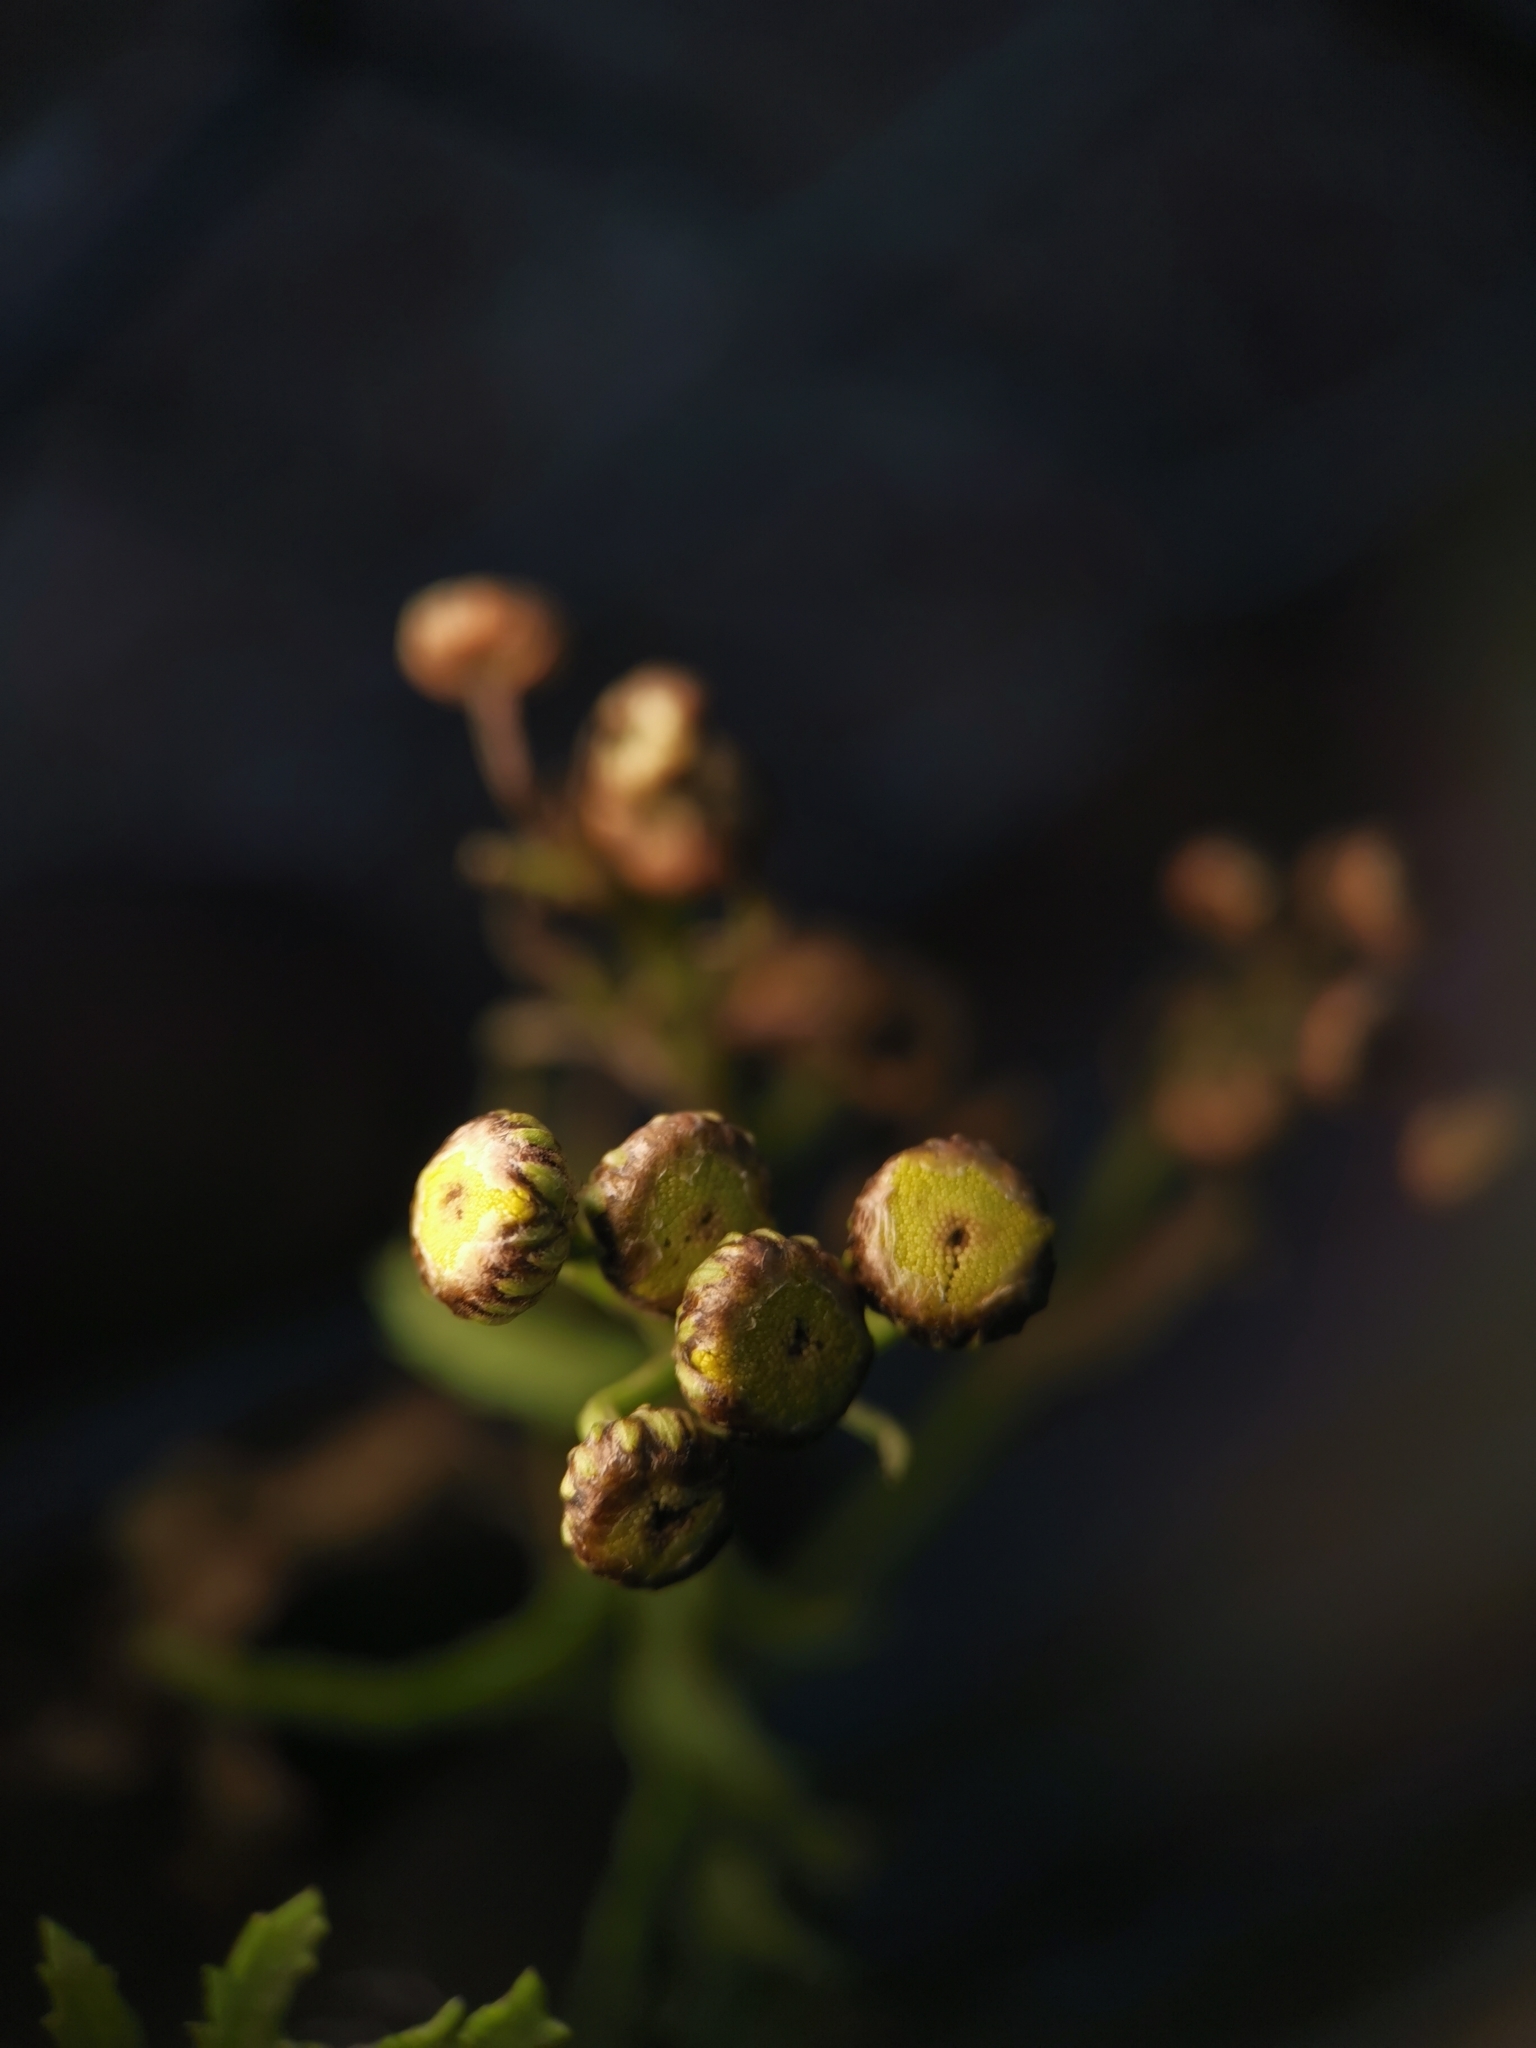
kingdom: Plantae
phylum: Tracheophyta
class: Magnoliopsida
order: Asterales
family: Asteraceae
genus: Tanacetum
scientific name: Tanacetum vulgare
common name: Common tansy
